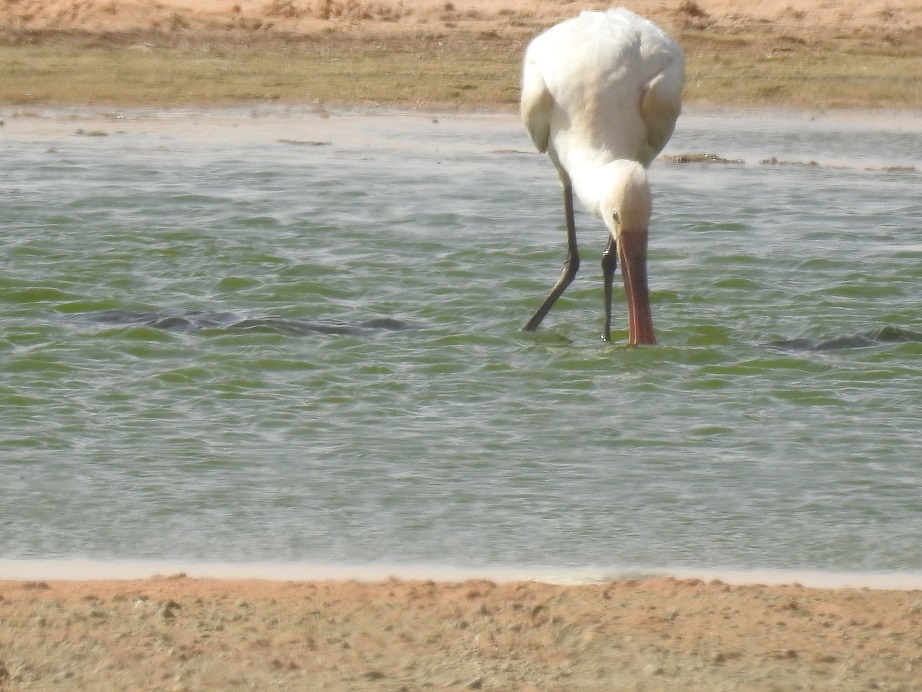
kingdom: Animalia
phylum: Chordata
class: Aves
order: Pelecaniformes
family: Threskiornithidae
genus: Platalea
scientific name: Platalea leucorodia
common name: Eurasian spoonbill
